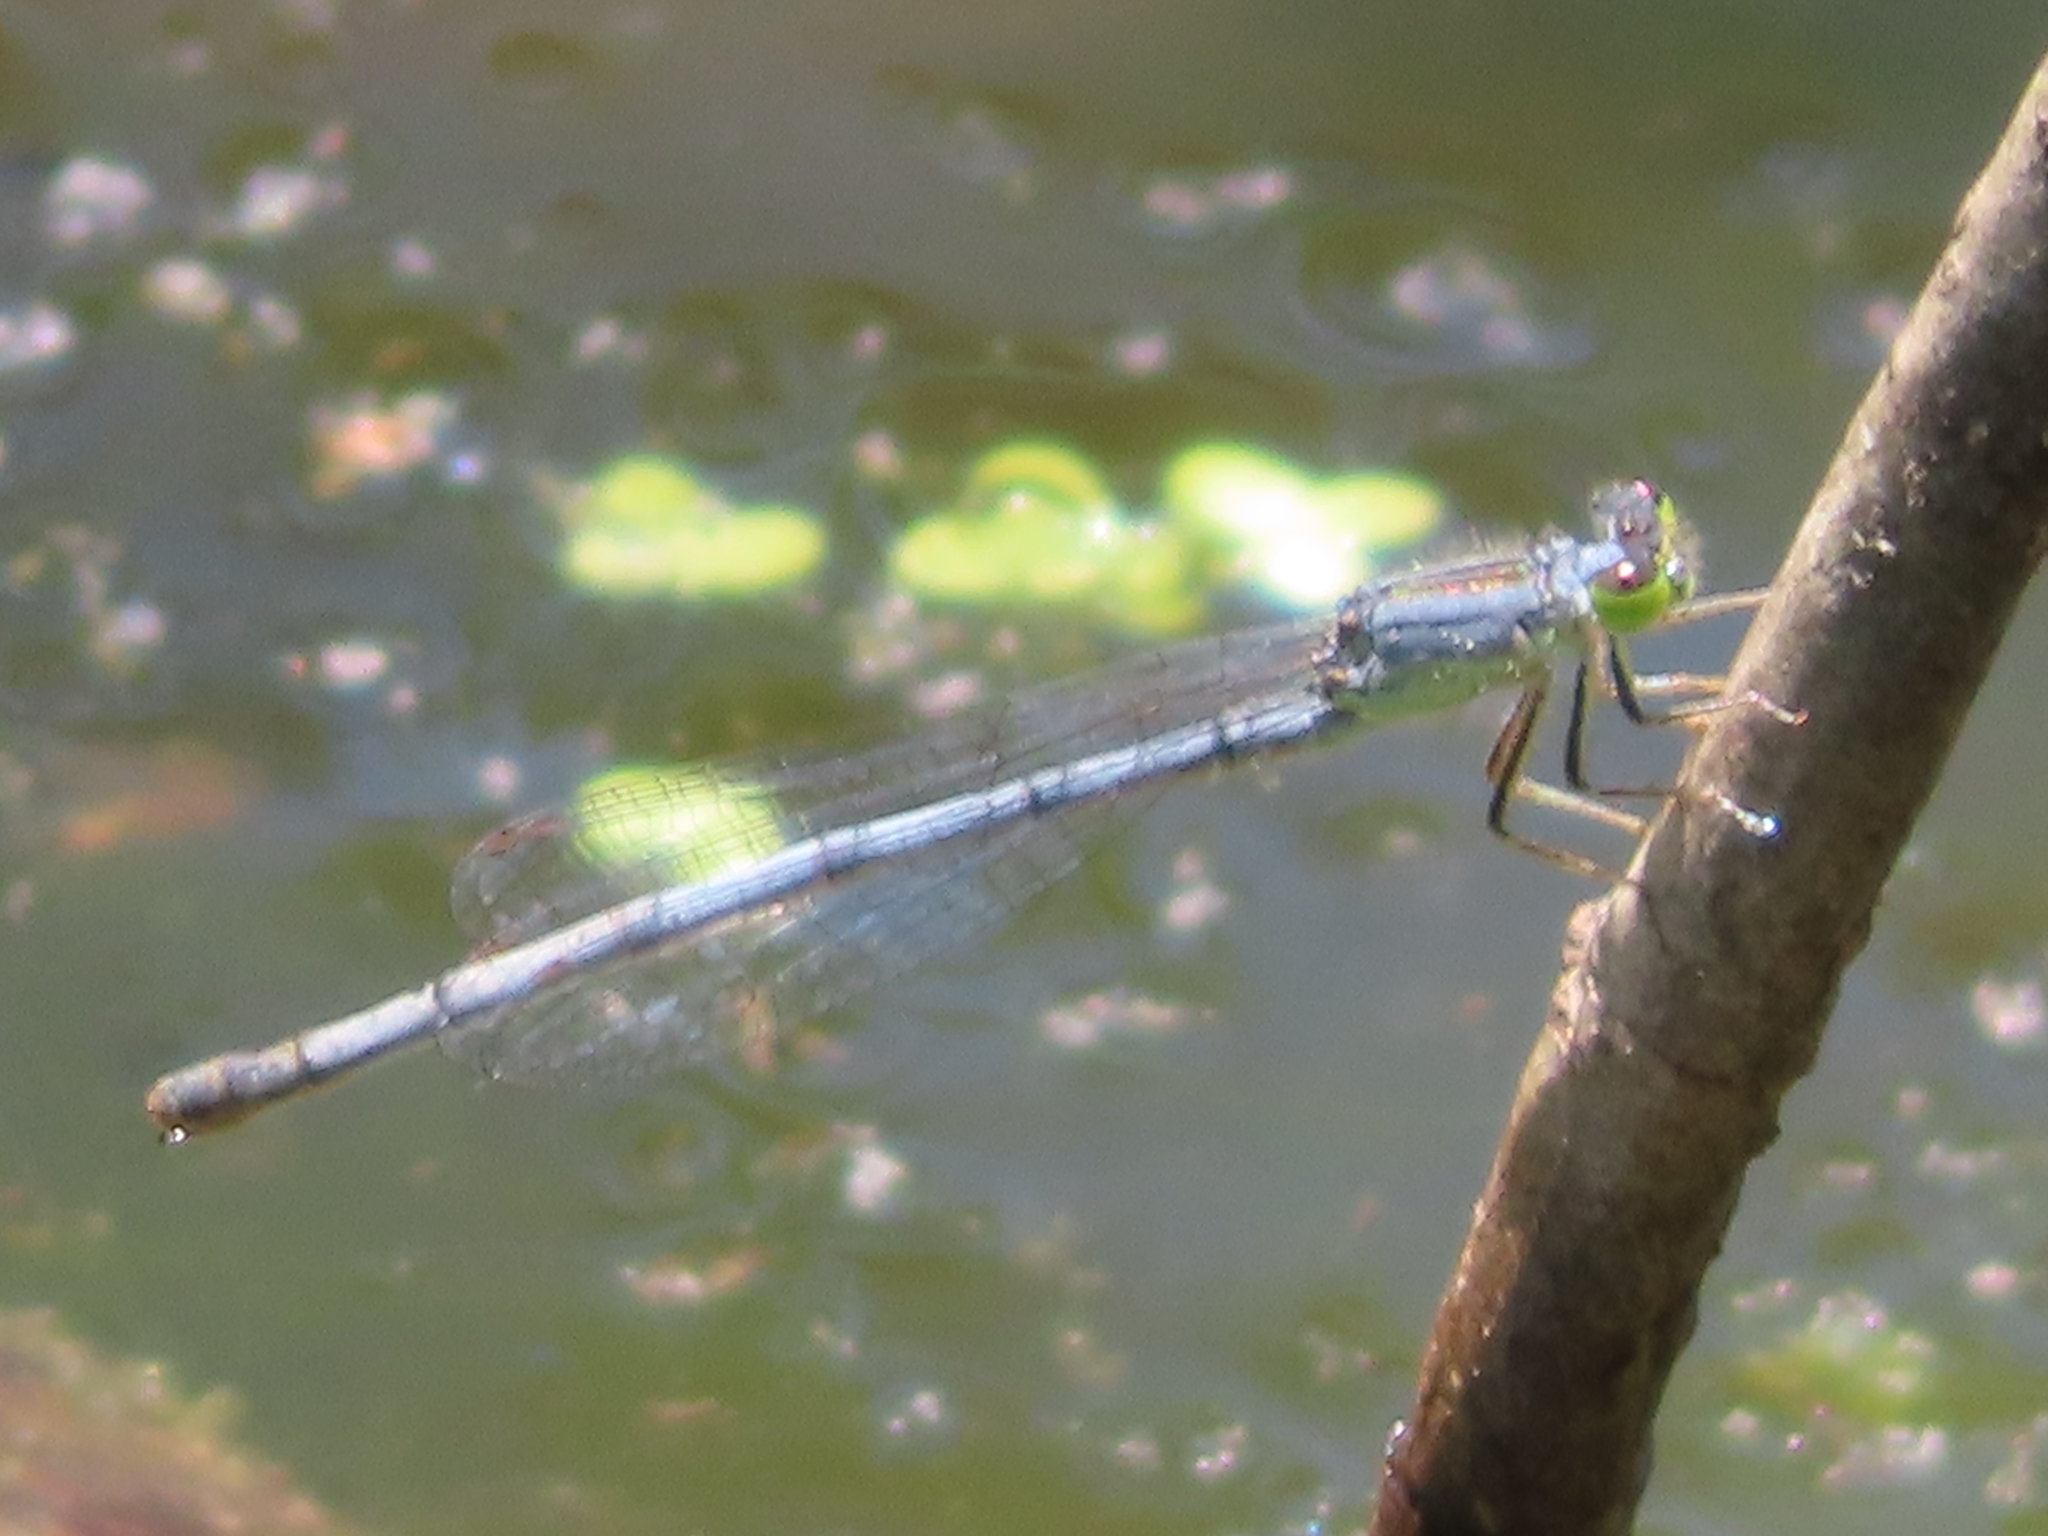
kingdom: Animalia
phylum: Arthropoda
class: Insecta
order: Odonata
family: Coenagrionidae
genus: Ischnura
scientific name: Ischnura verticalis
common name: Eastern forktail
